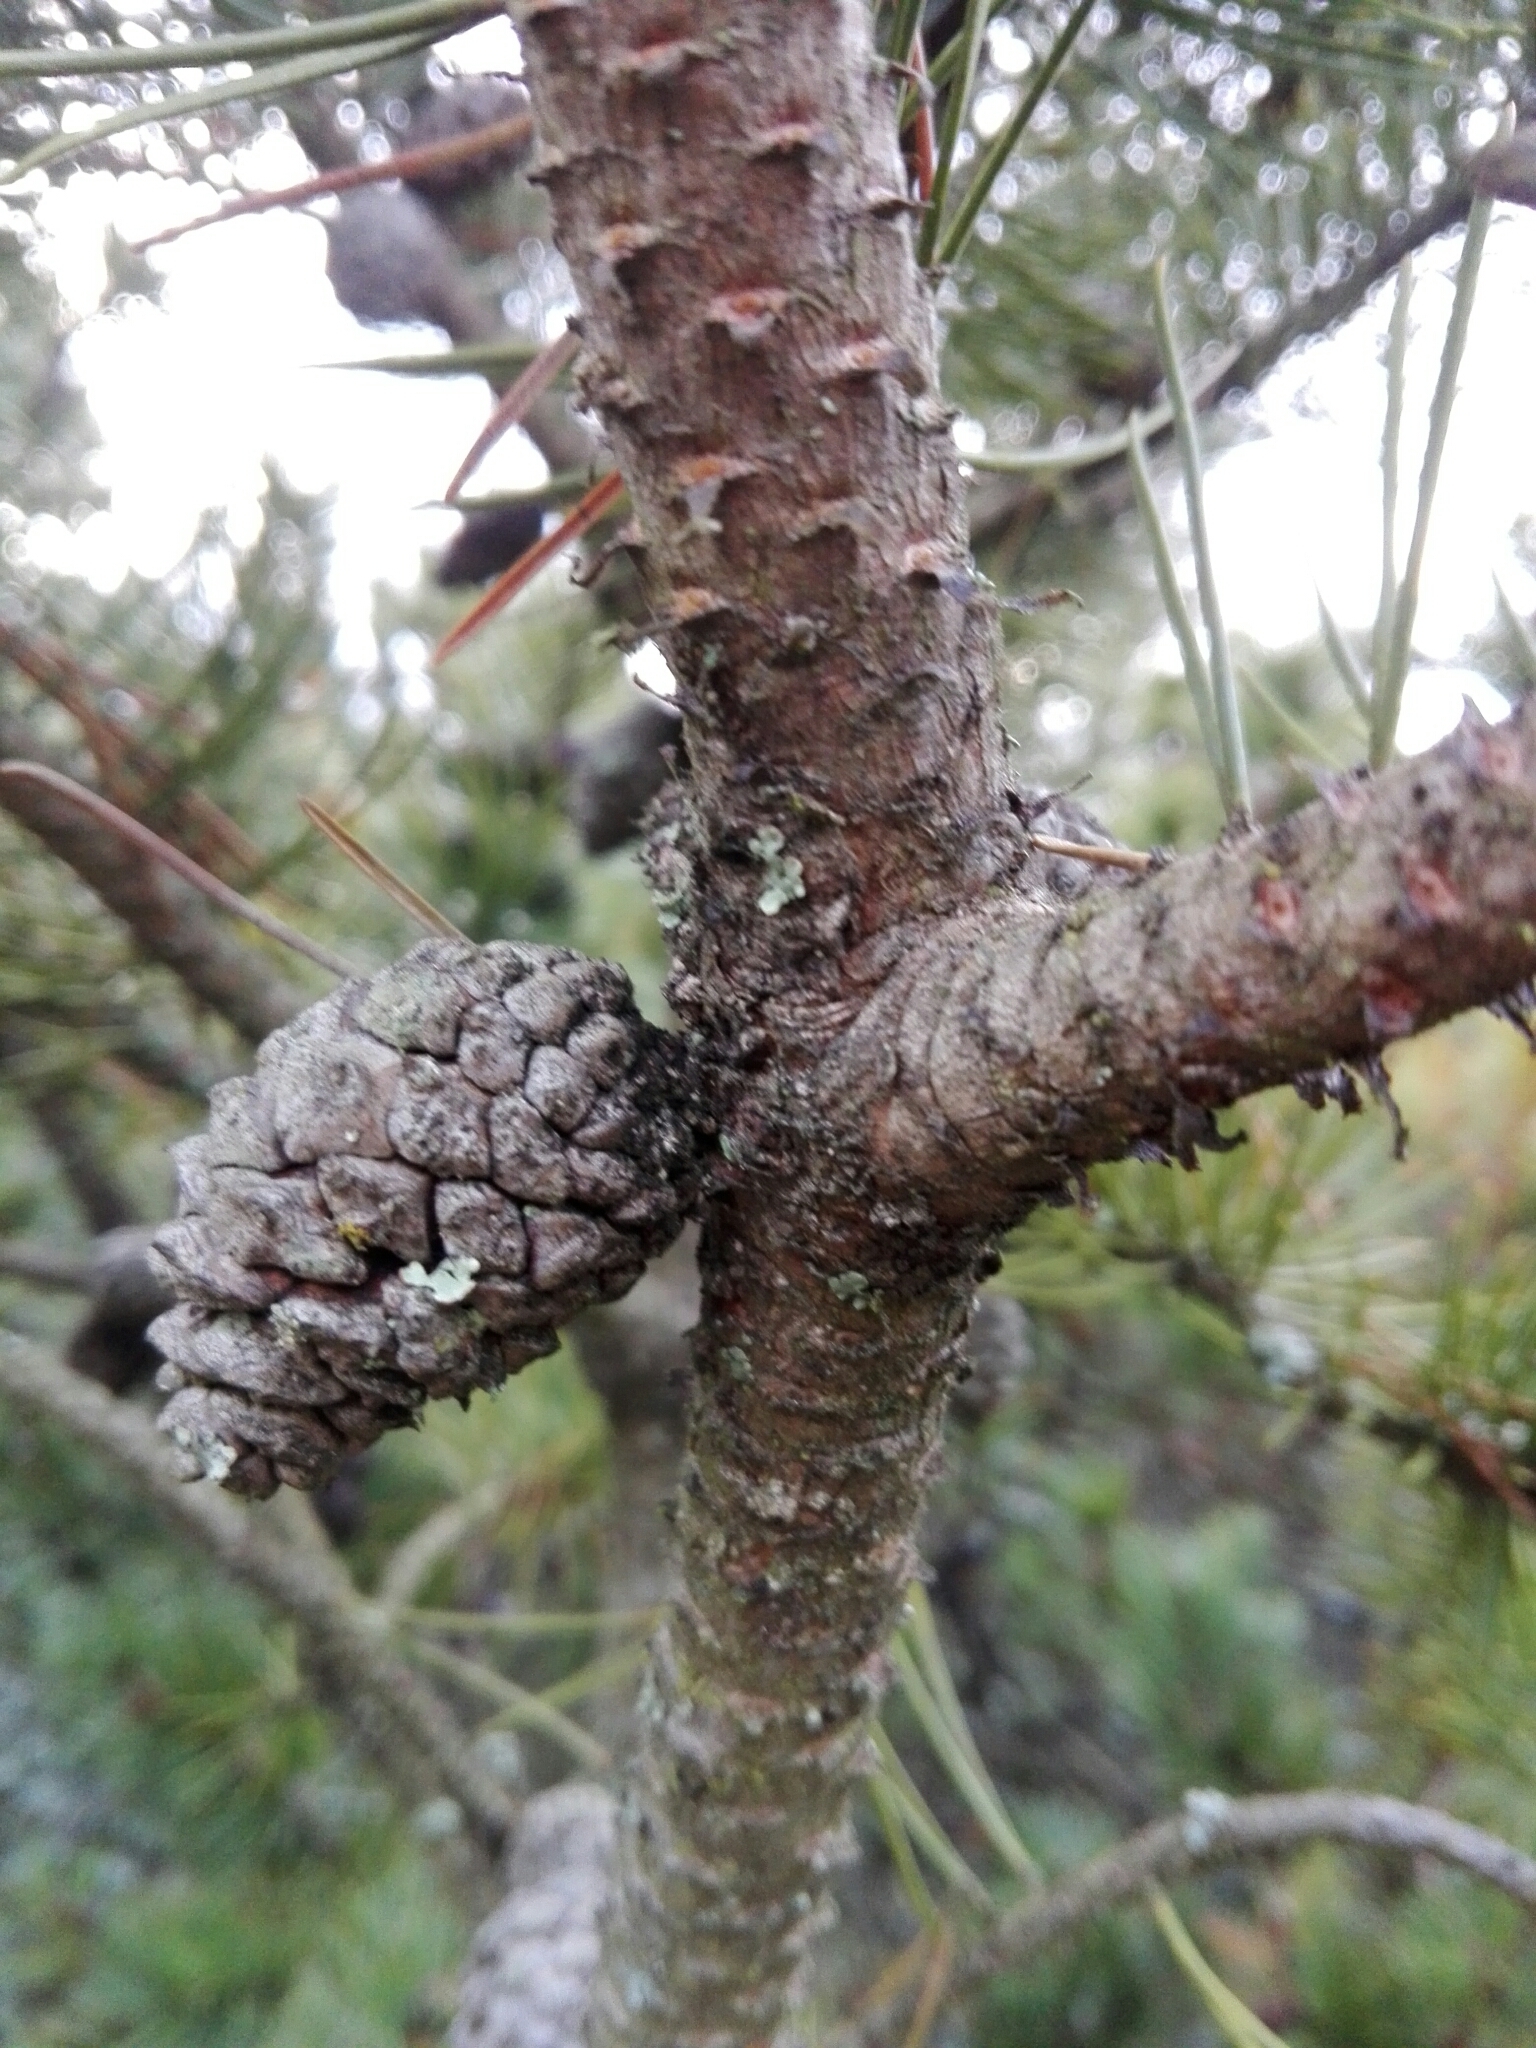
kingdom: Plantae
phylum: Tracheophyta
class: Pinopsida
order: Pinales
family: Pinaceae
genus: Pinus
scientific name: Pinus mugo
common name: Mugo pine
